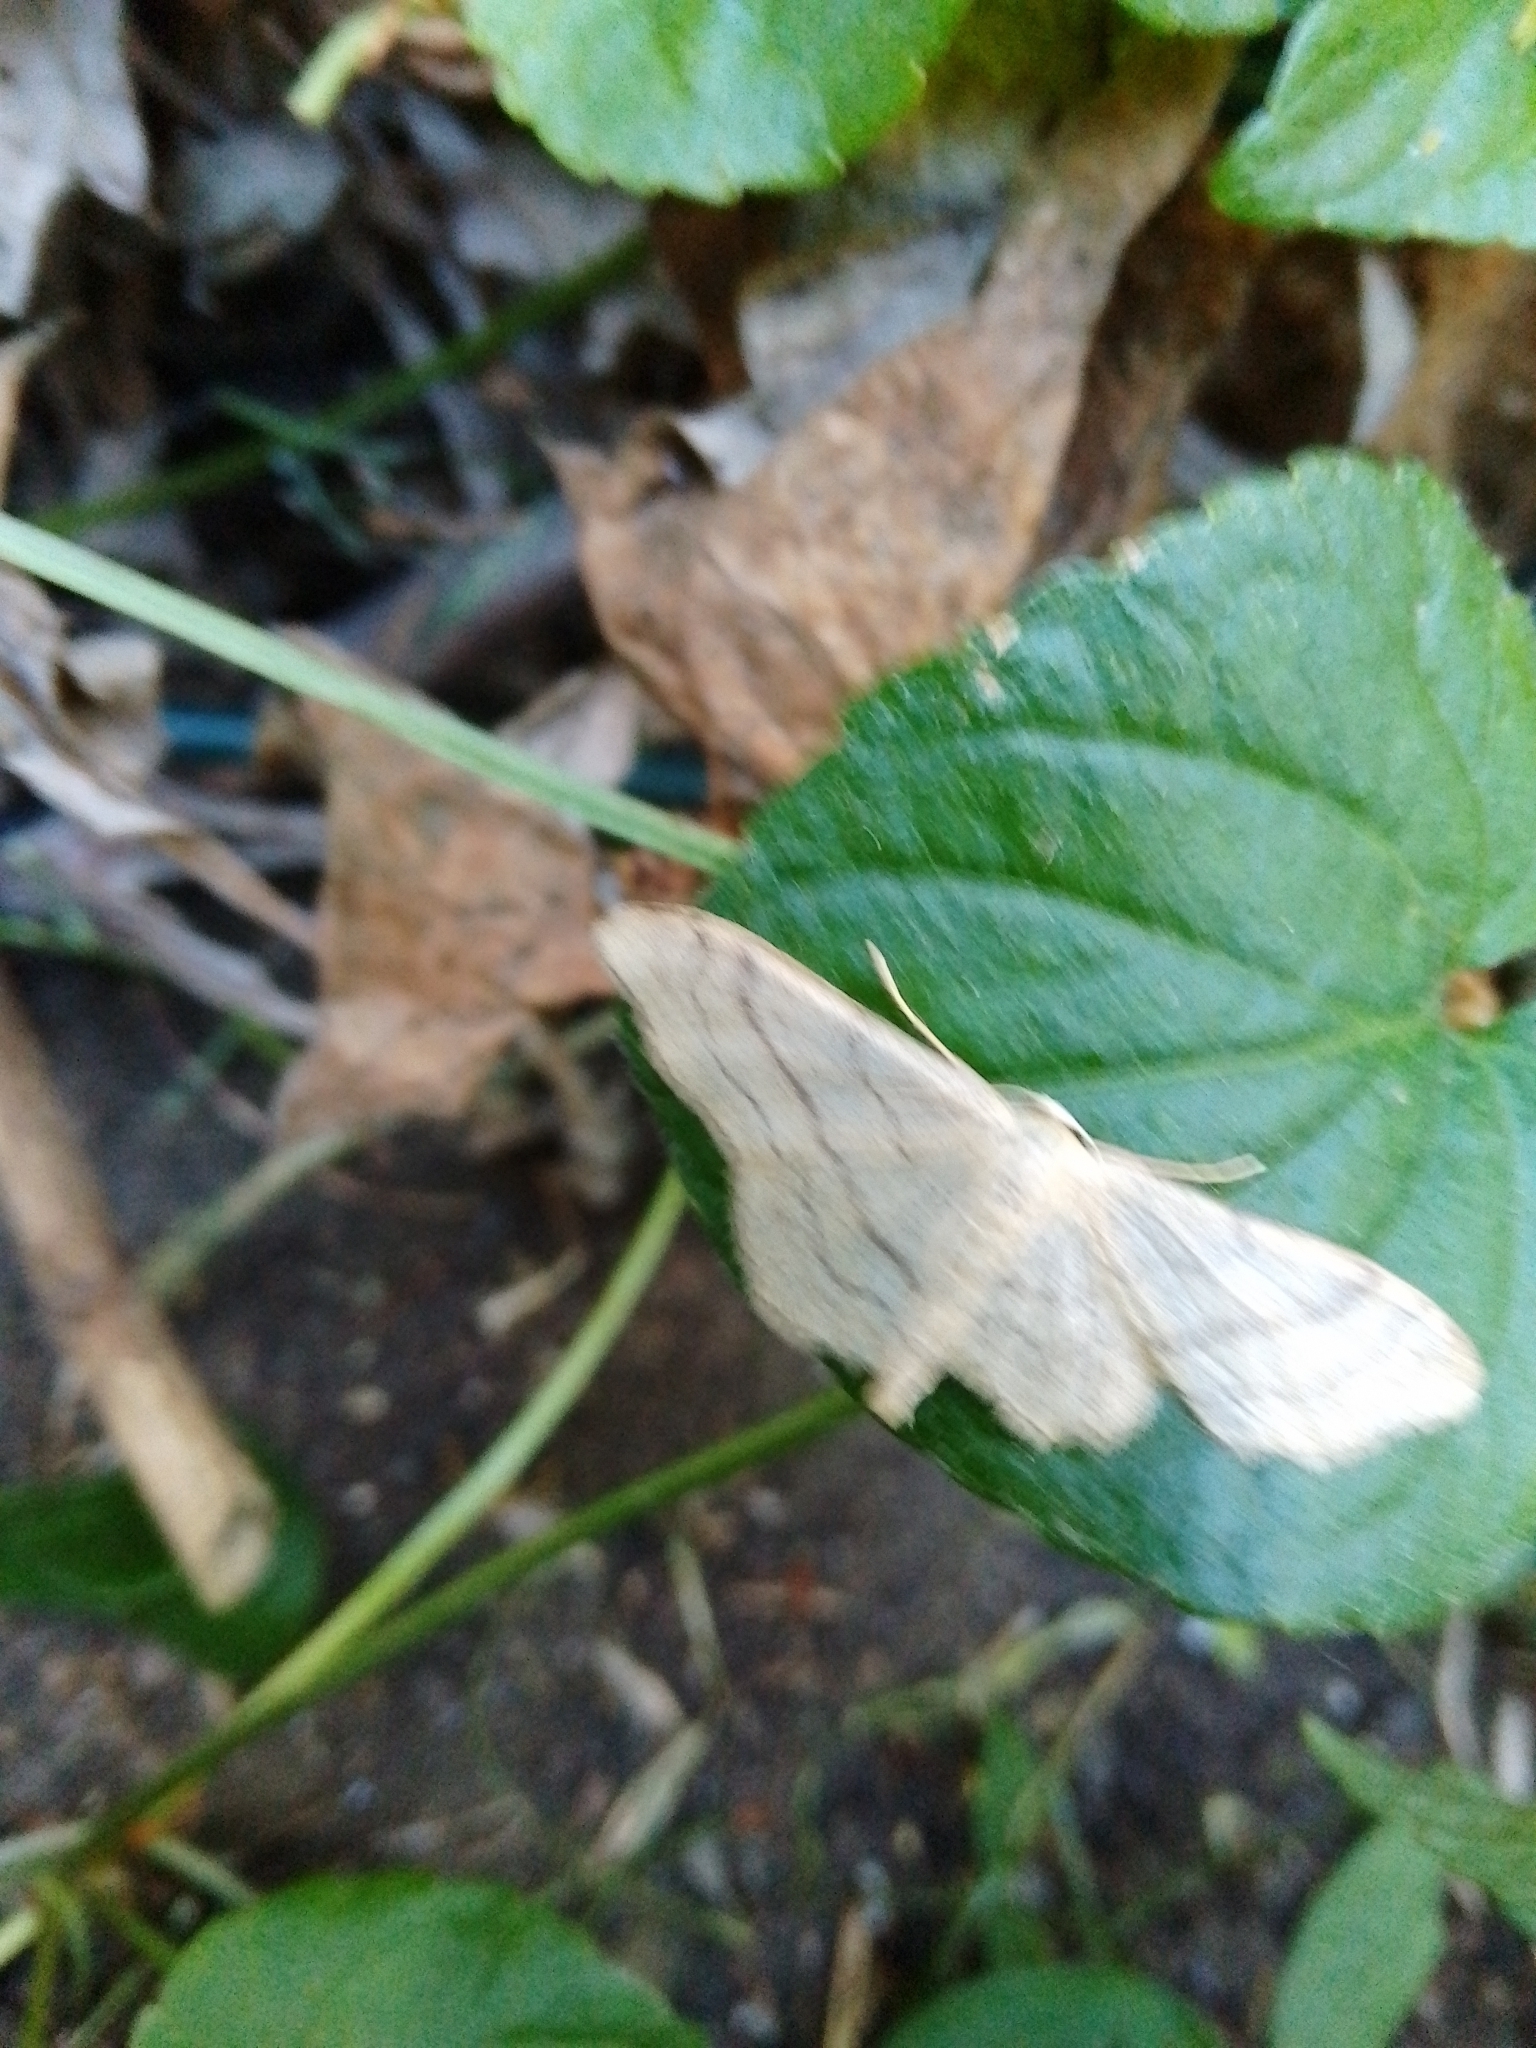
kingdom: Animalia
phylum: Arthropoda
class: Insecta
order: Lepidoptera
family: Geometridae
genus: Idaea
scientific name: Idaea aversata
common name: Riband wave
